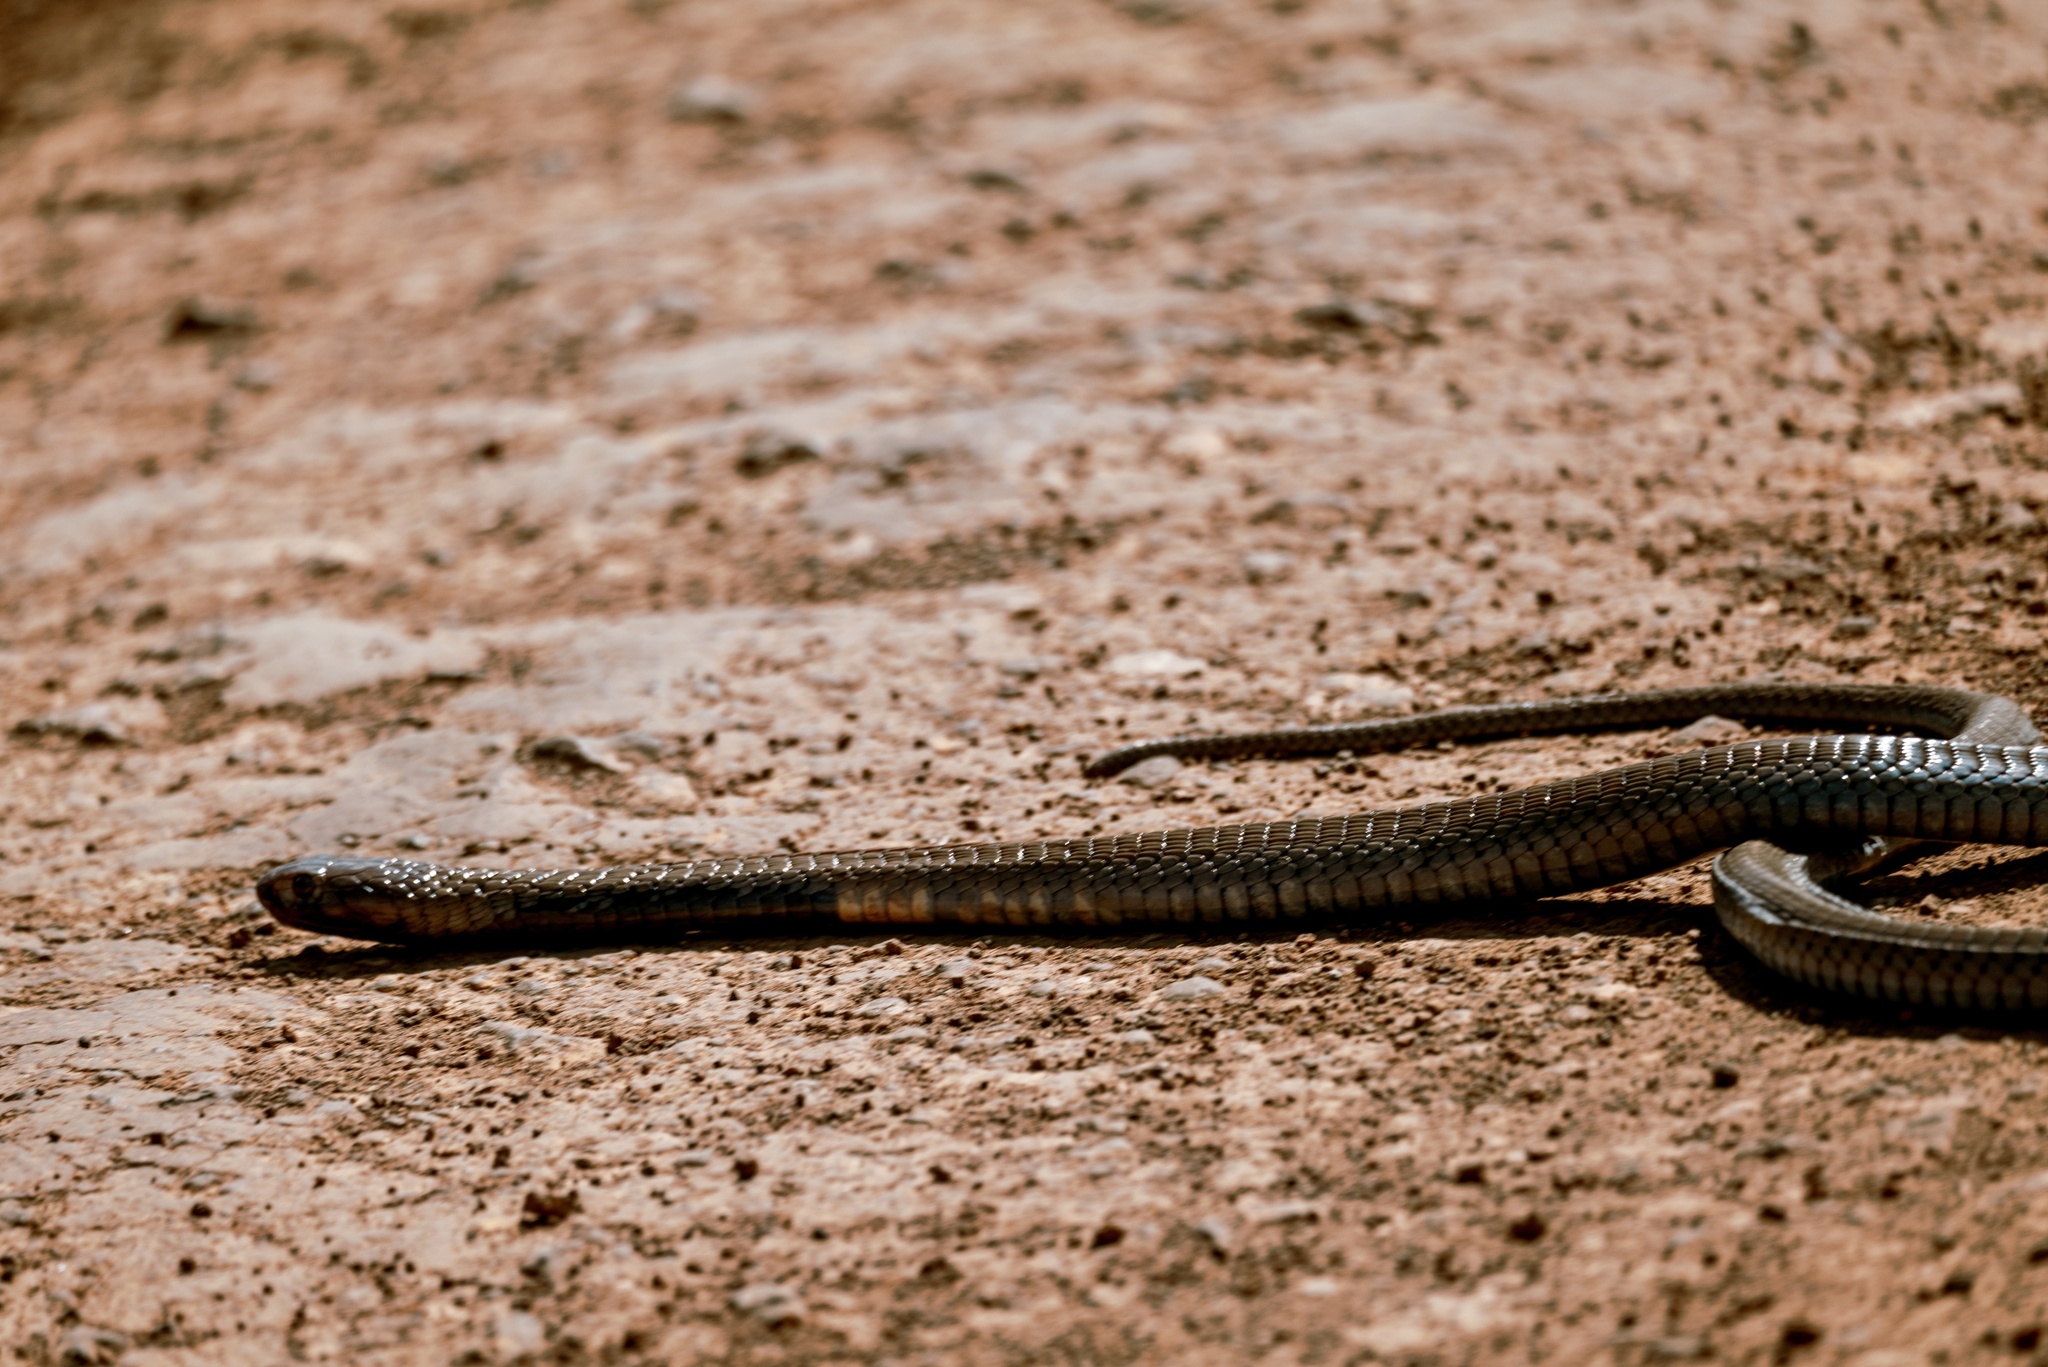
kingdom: Animalia
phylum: Chordata
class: Squamata
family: Elapidae
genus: Naja
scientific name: Naja nigricollis
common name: Black-necked spitting cobra
